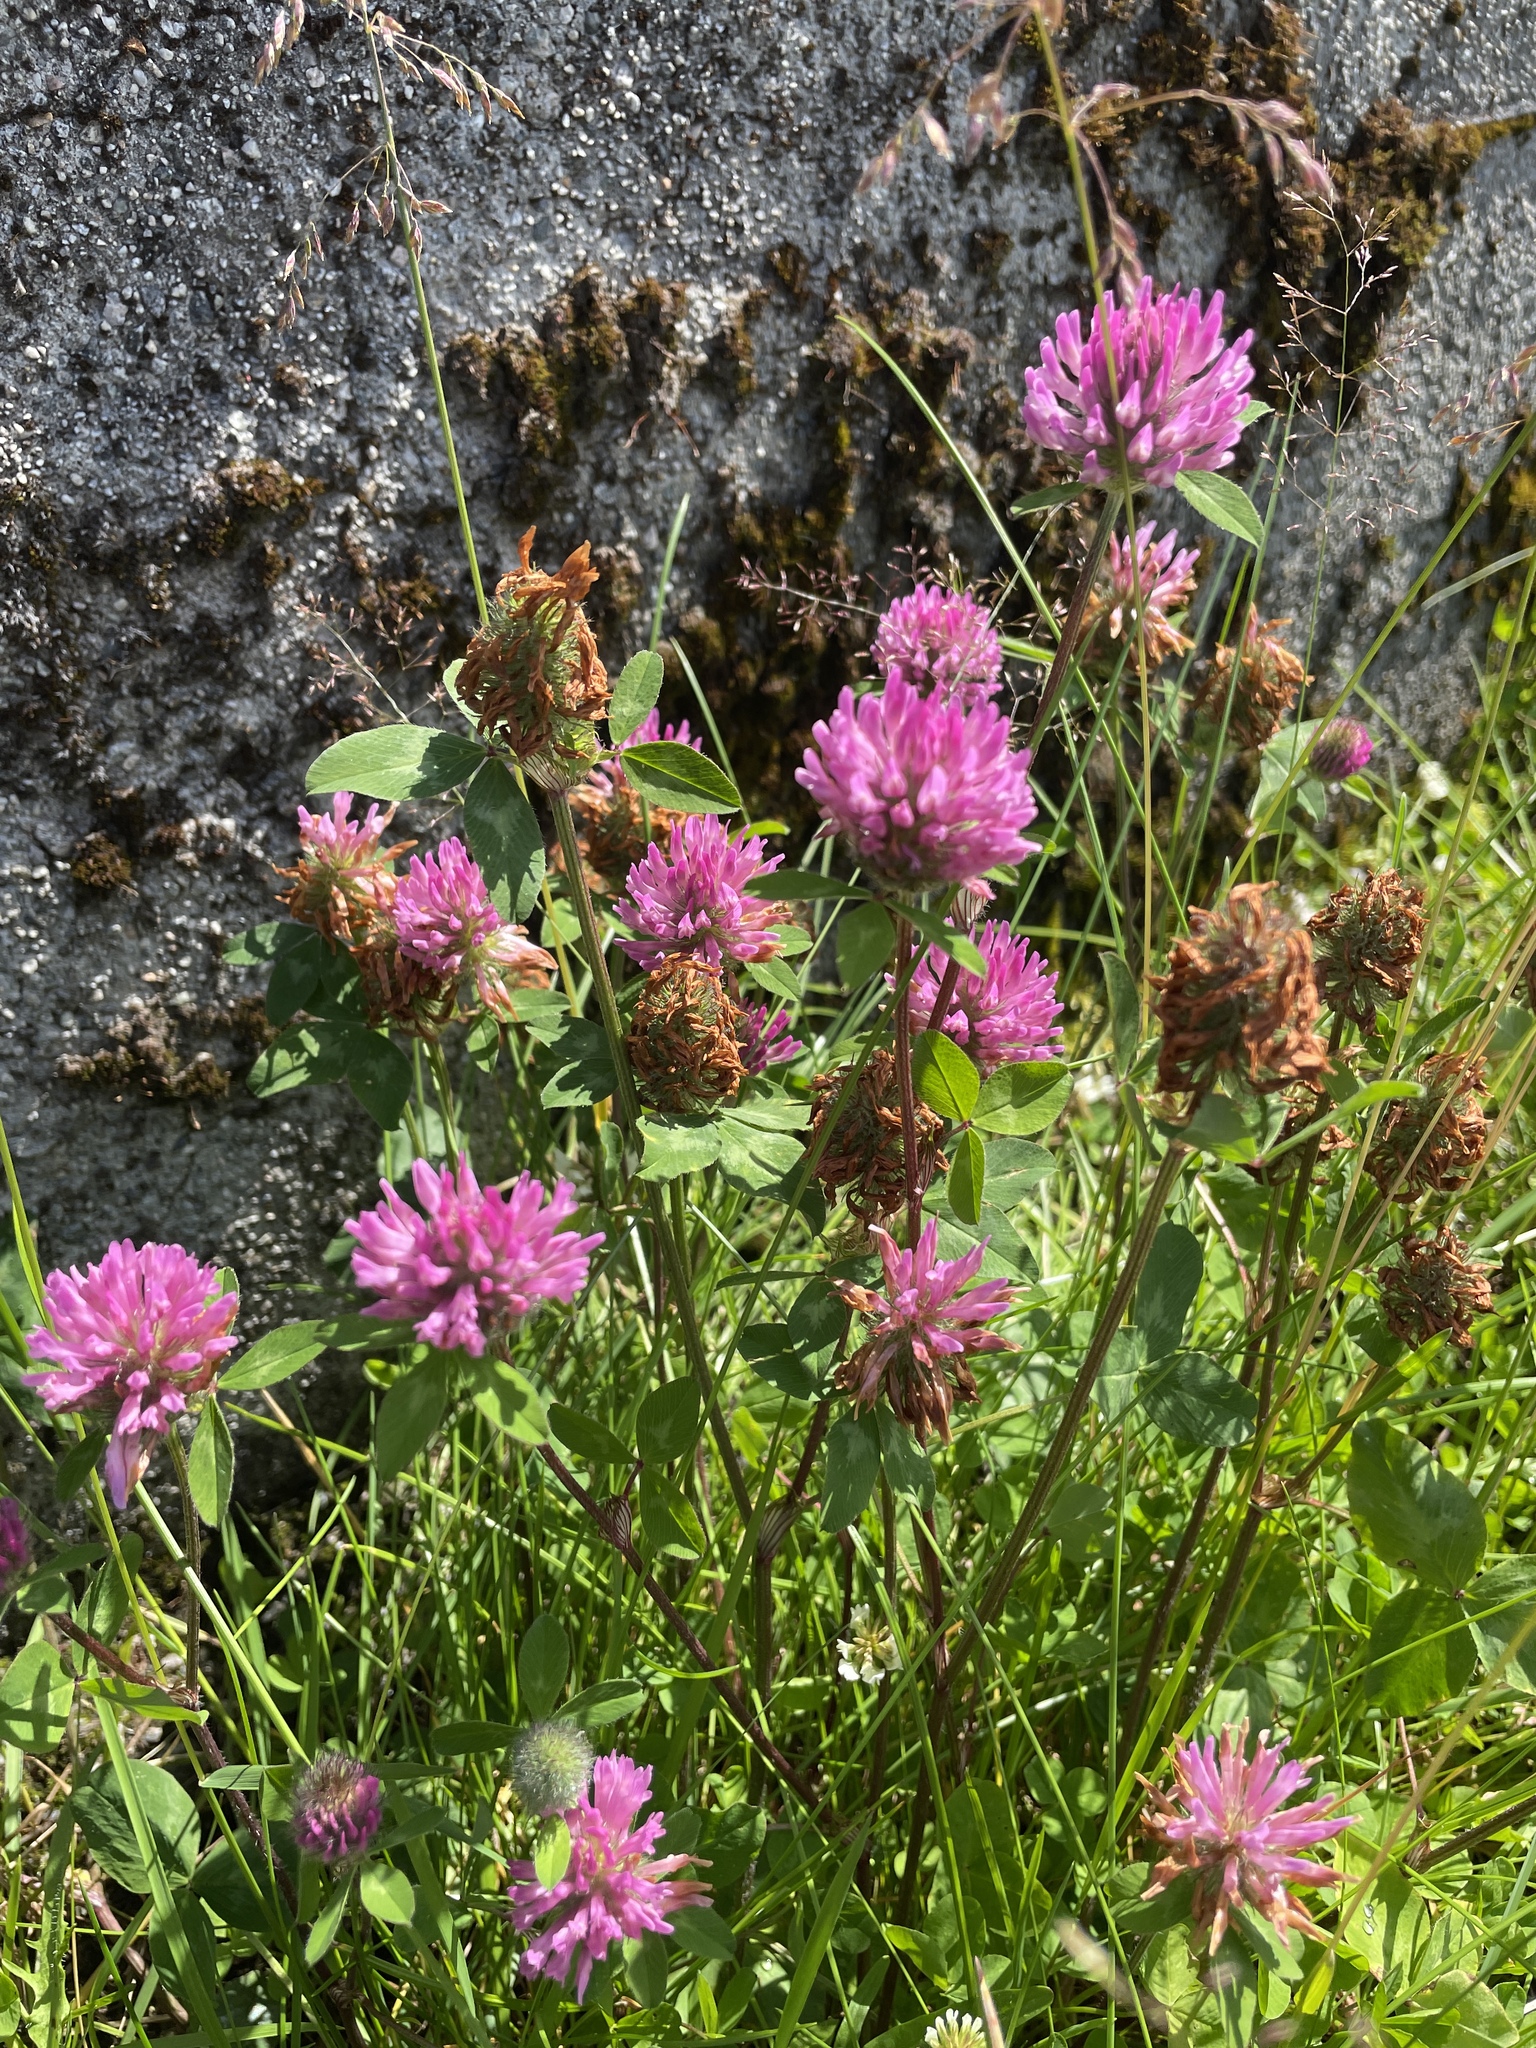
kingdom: Plantae
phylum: Tracheophyta
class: Magnoliopsida
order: Fabales
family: Fabaceae
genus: Trifolium
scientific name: Trifolium pratense
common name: Red clover
